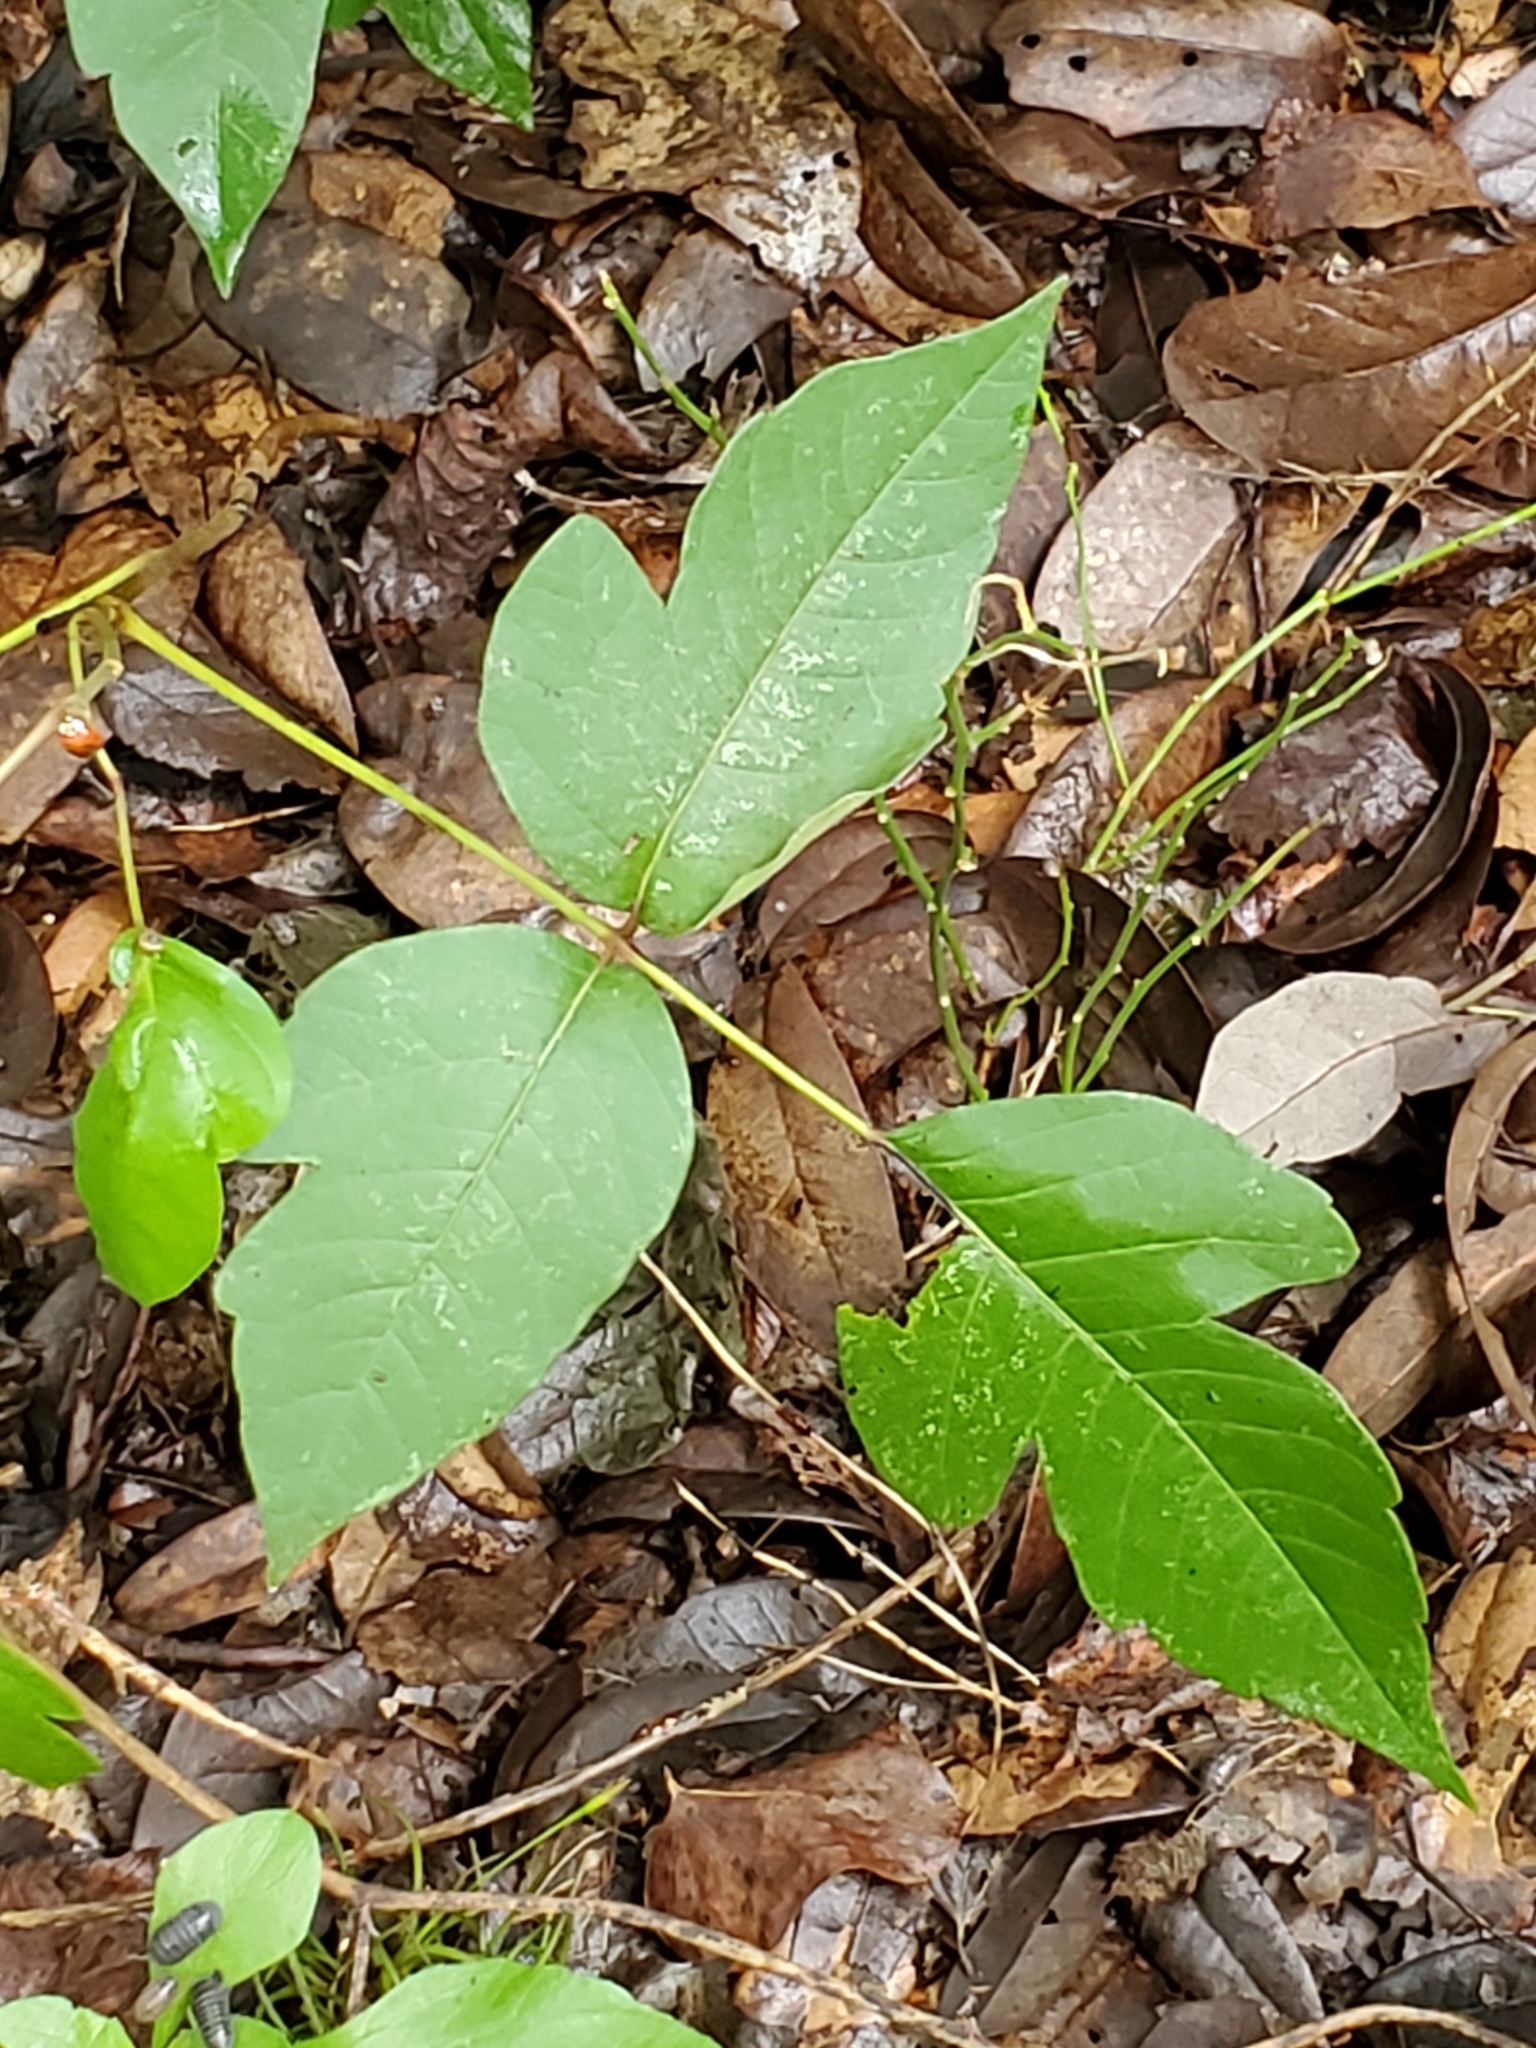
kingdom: Plantae
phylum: Tracheophyta
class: Magnoliopsida
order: Sapindales
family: Anacardiaceae
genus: Toxicodendron
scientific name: Toxicodendron radicans
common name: Poison ivy
